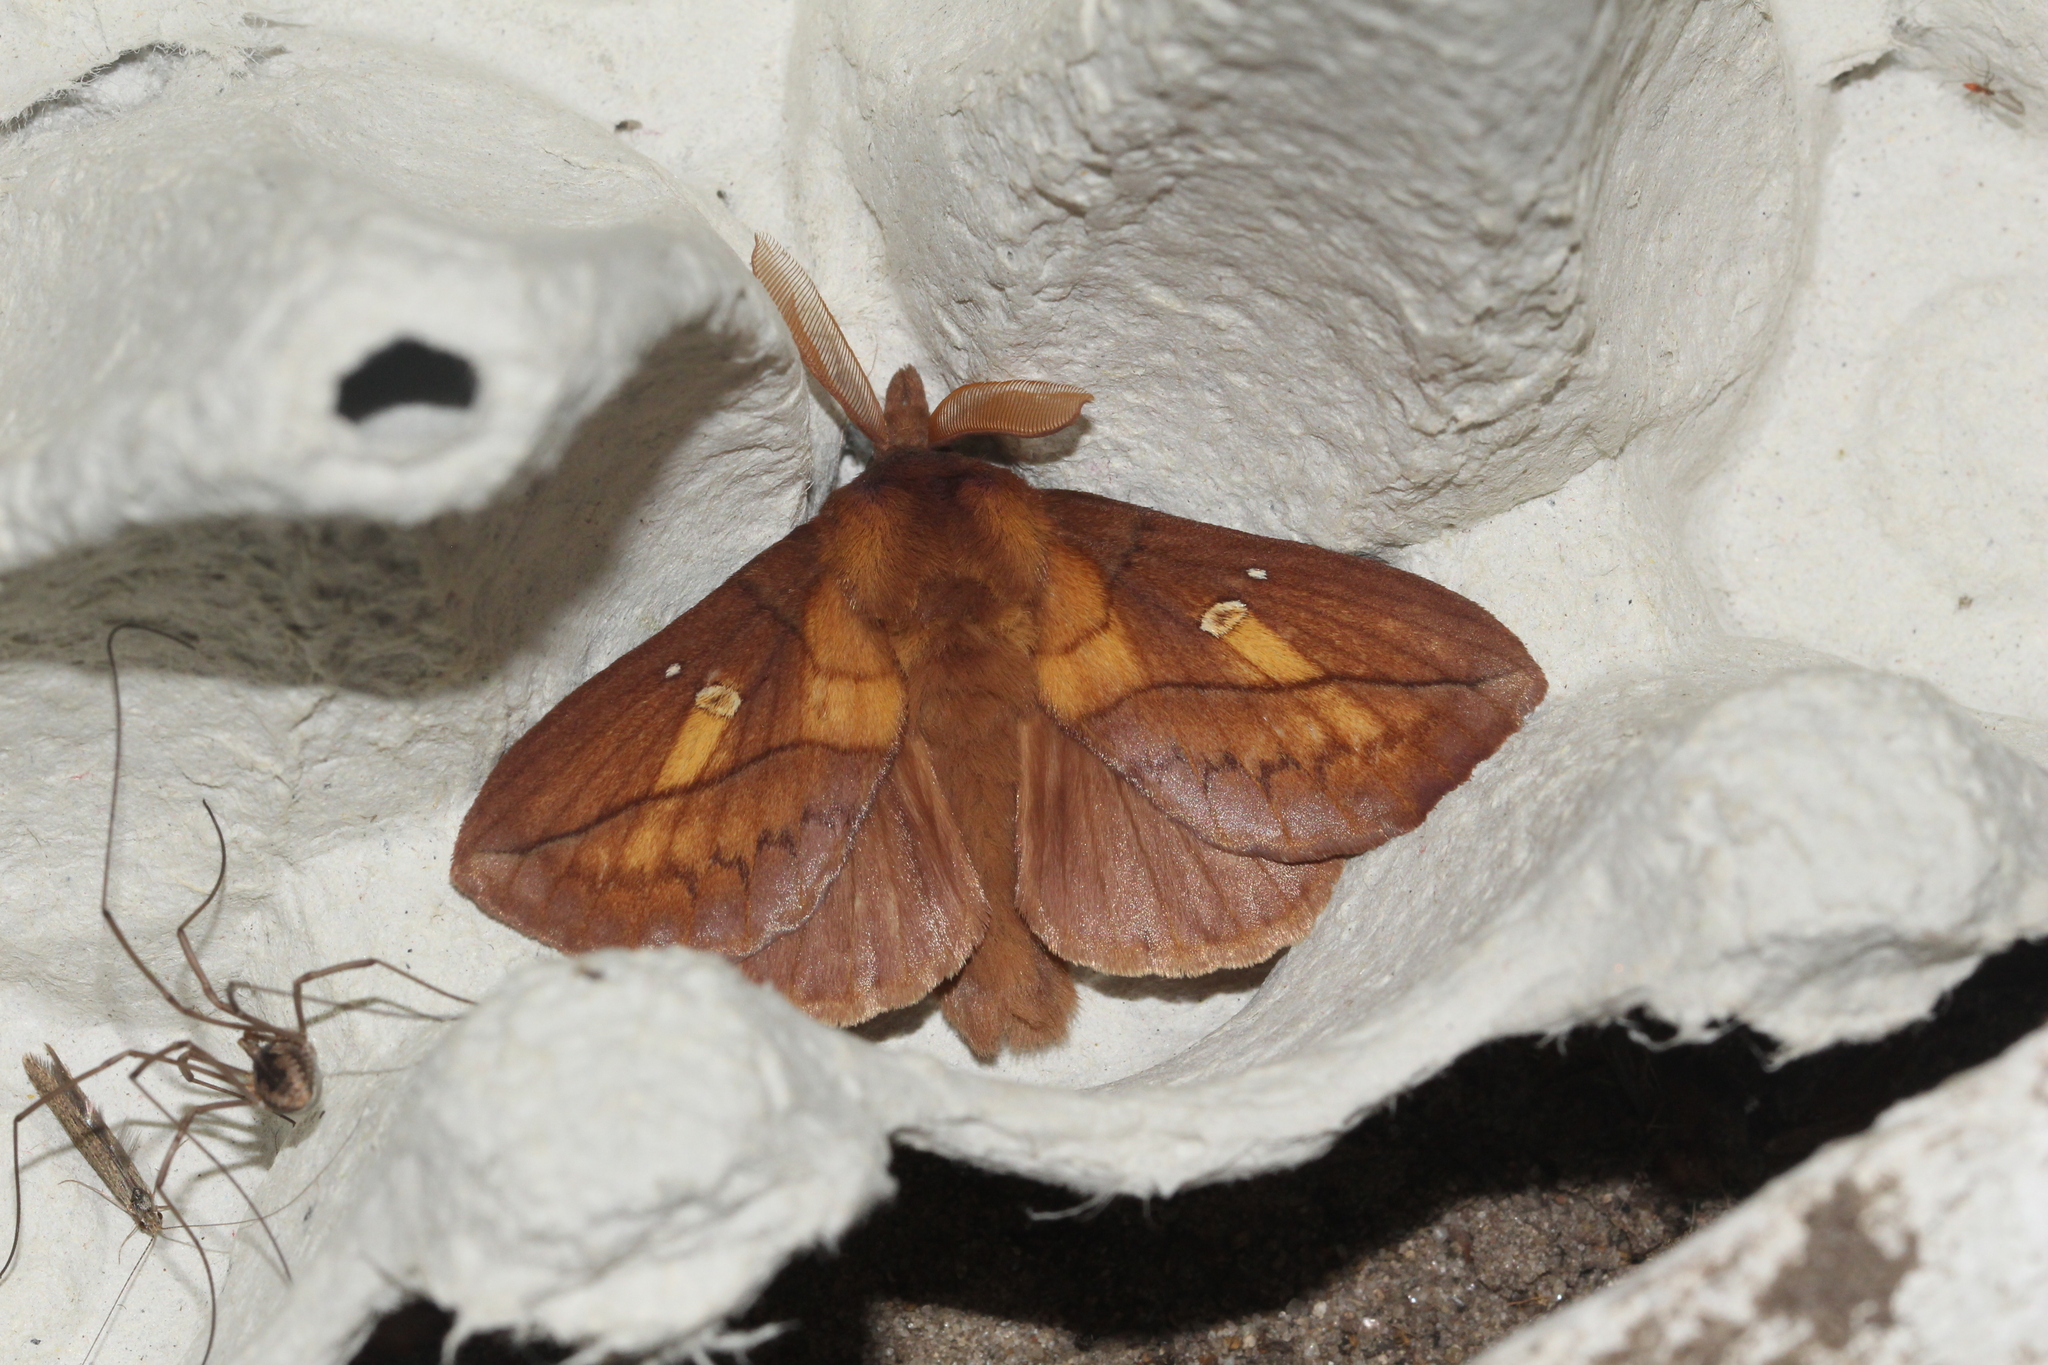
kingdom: Animalia
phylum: Arthropoda
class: Insecta
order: Lepidoptera
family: Lasiocampidae
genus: Euthrix
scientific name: Euthrix potatoria
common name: Drinker
